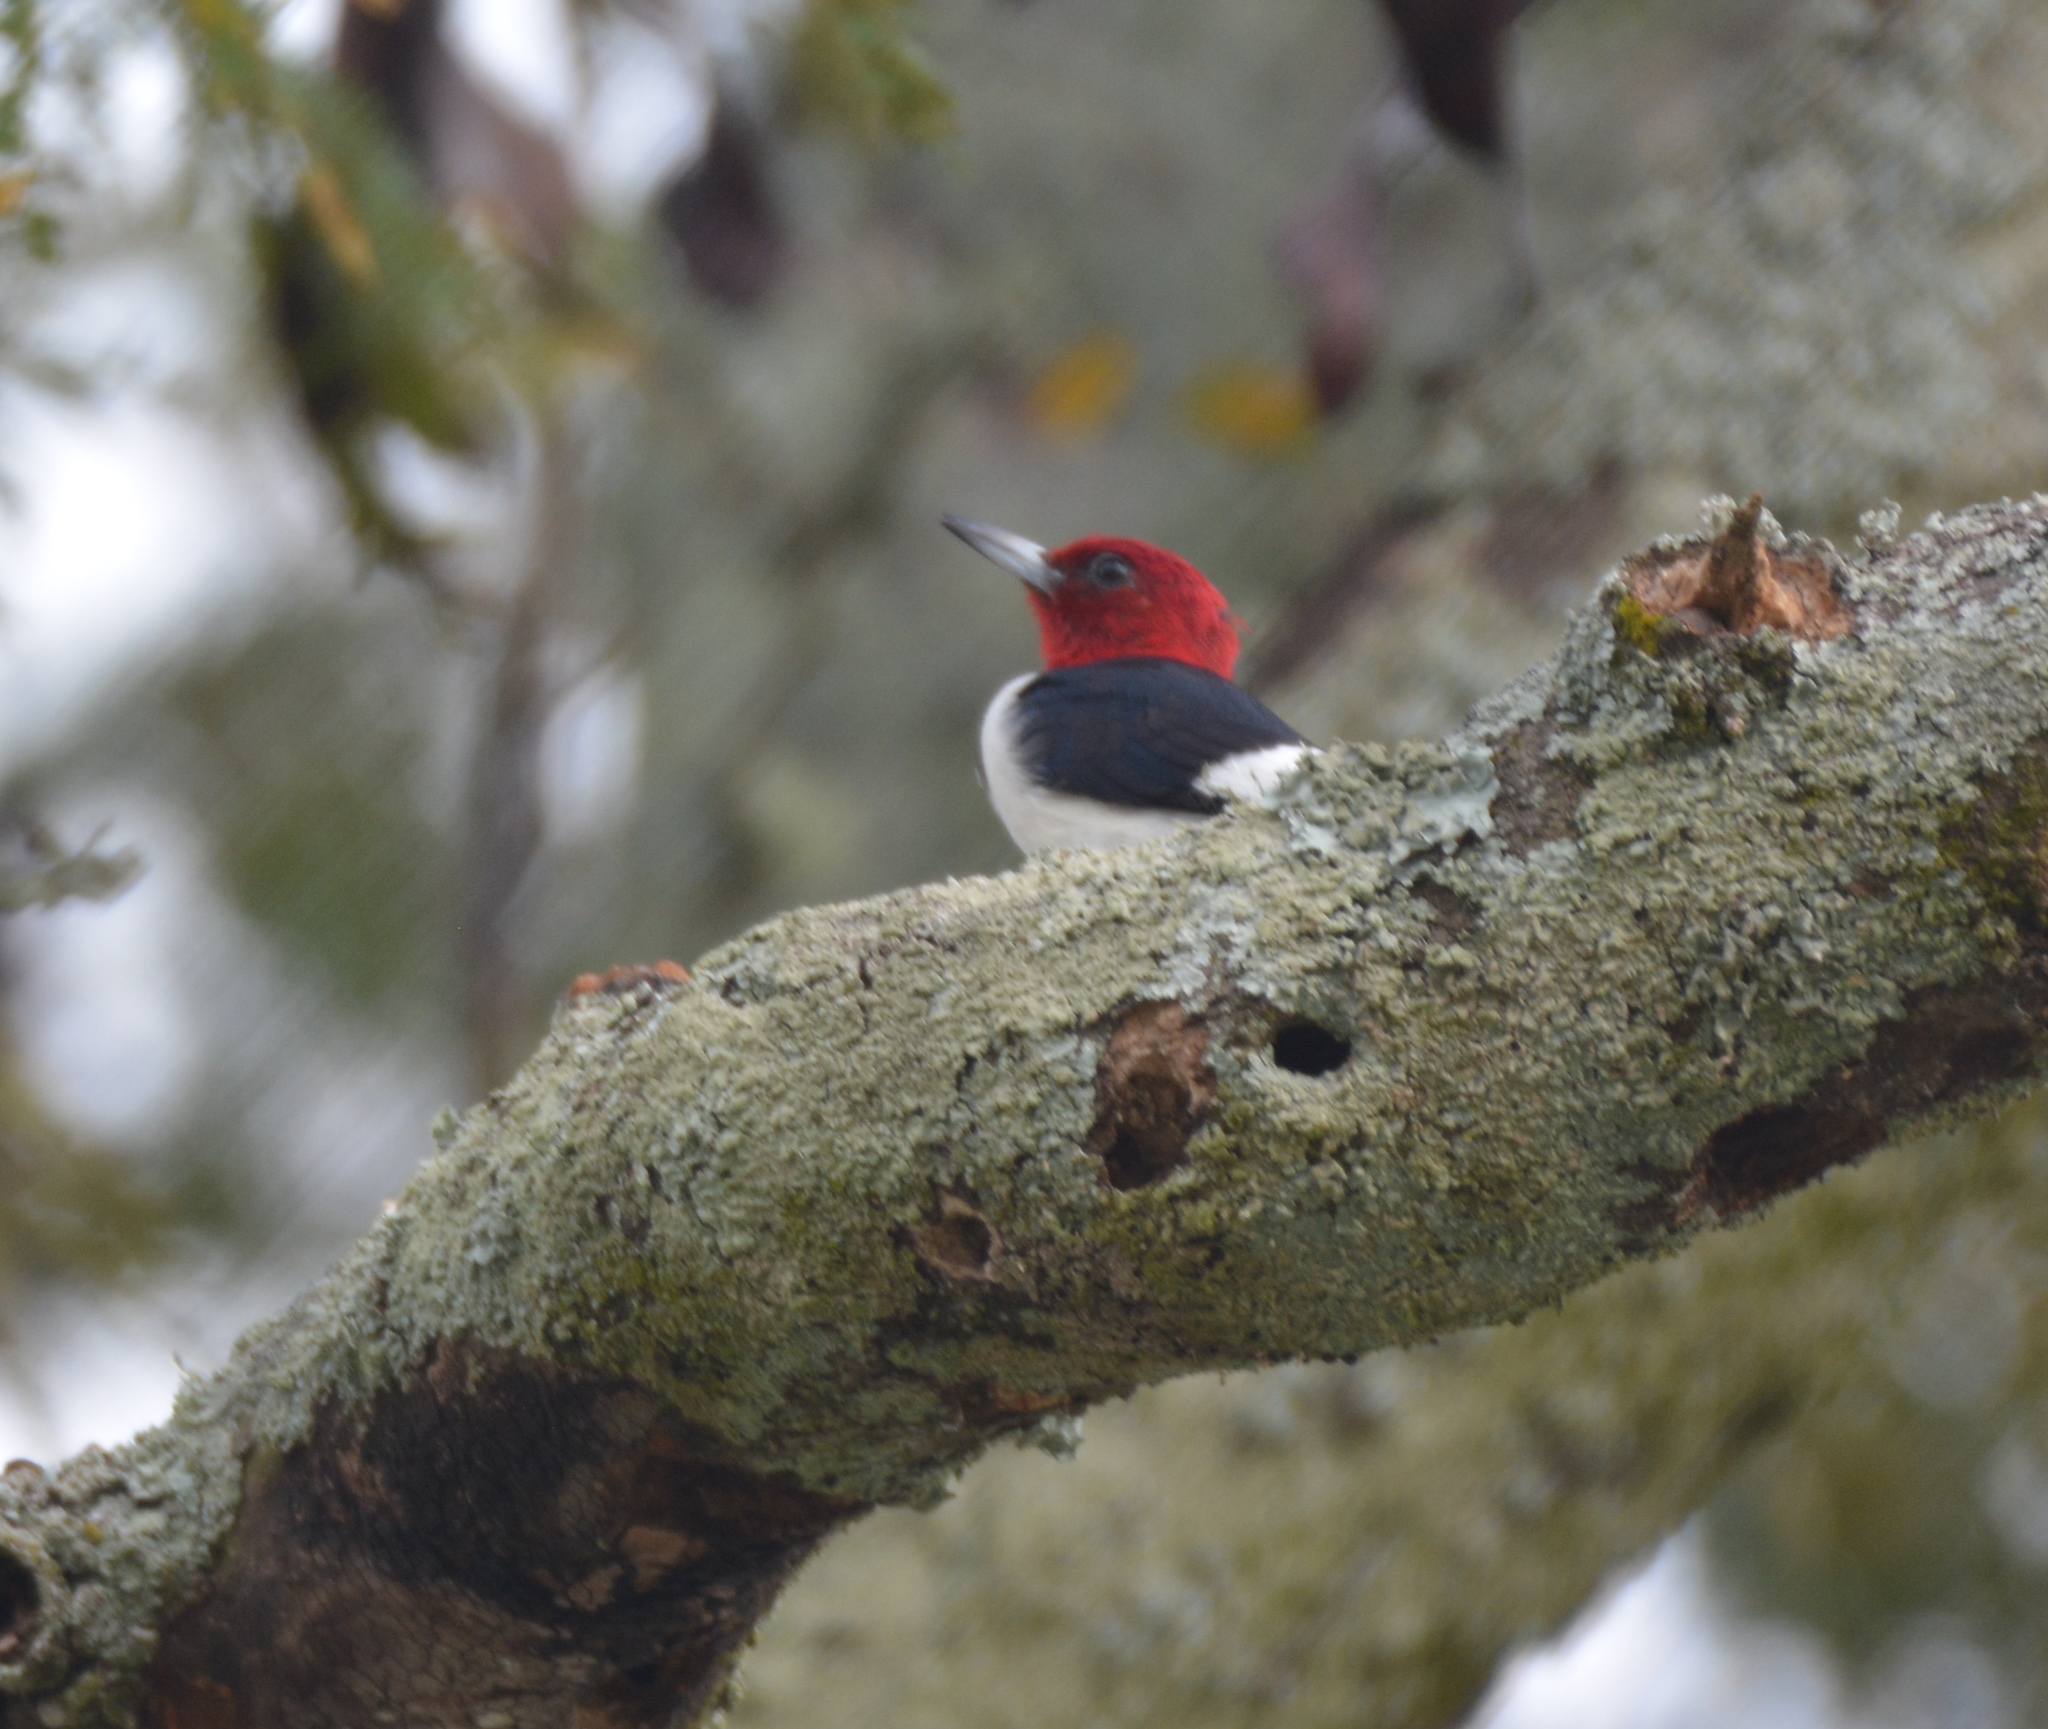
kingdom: Animalia
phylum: Chordata
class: Aves
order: Piciformes
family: Picidae
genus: Melanerpes
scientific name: Melanerpes erythrocephalus
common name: Red-headed woodpecker
